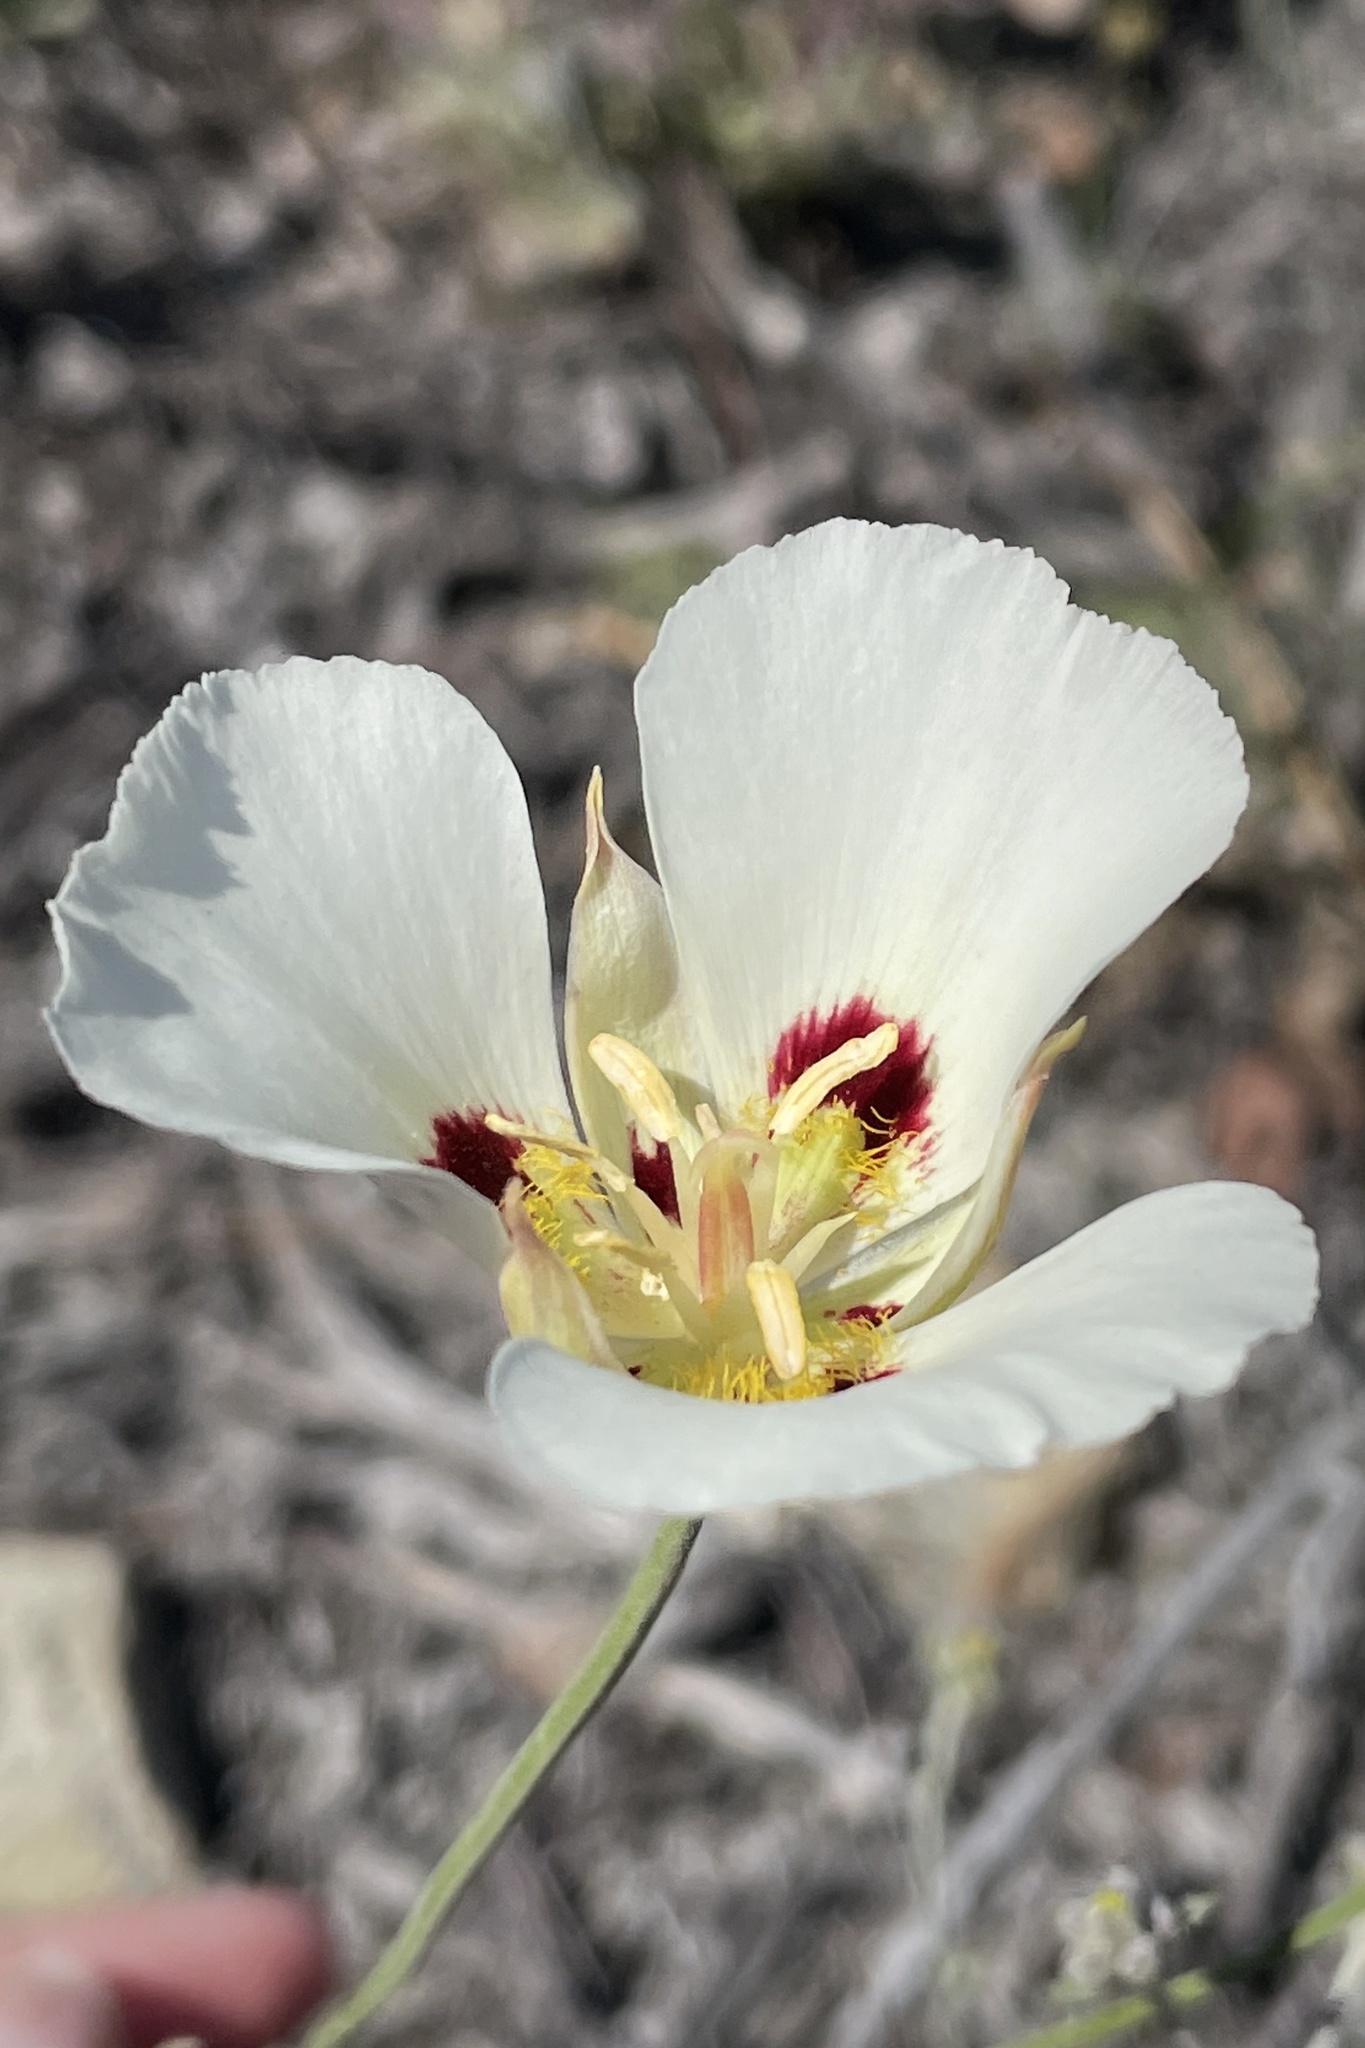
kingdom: Plantae
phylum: Tracheophyta
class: Liliopsida
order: Liliales
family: Liliaceae
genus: Calochortus
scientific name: Calochortus dunnii
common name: Dunn's mariposa-lily
